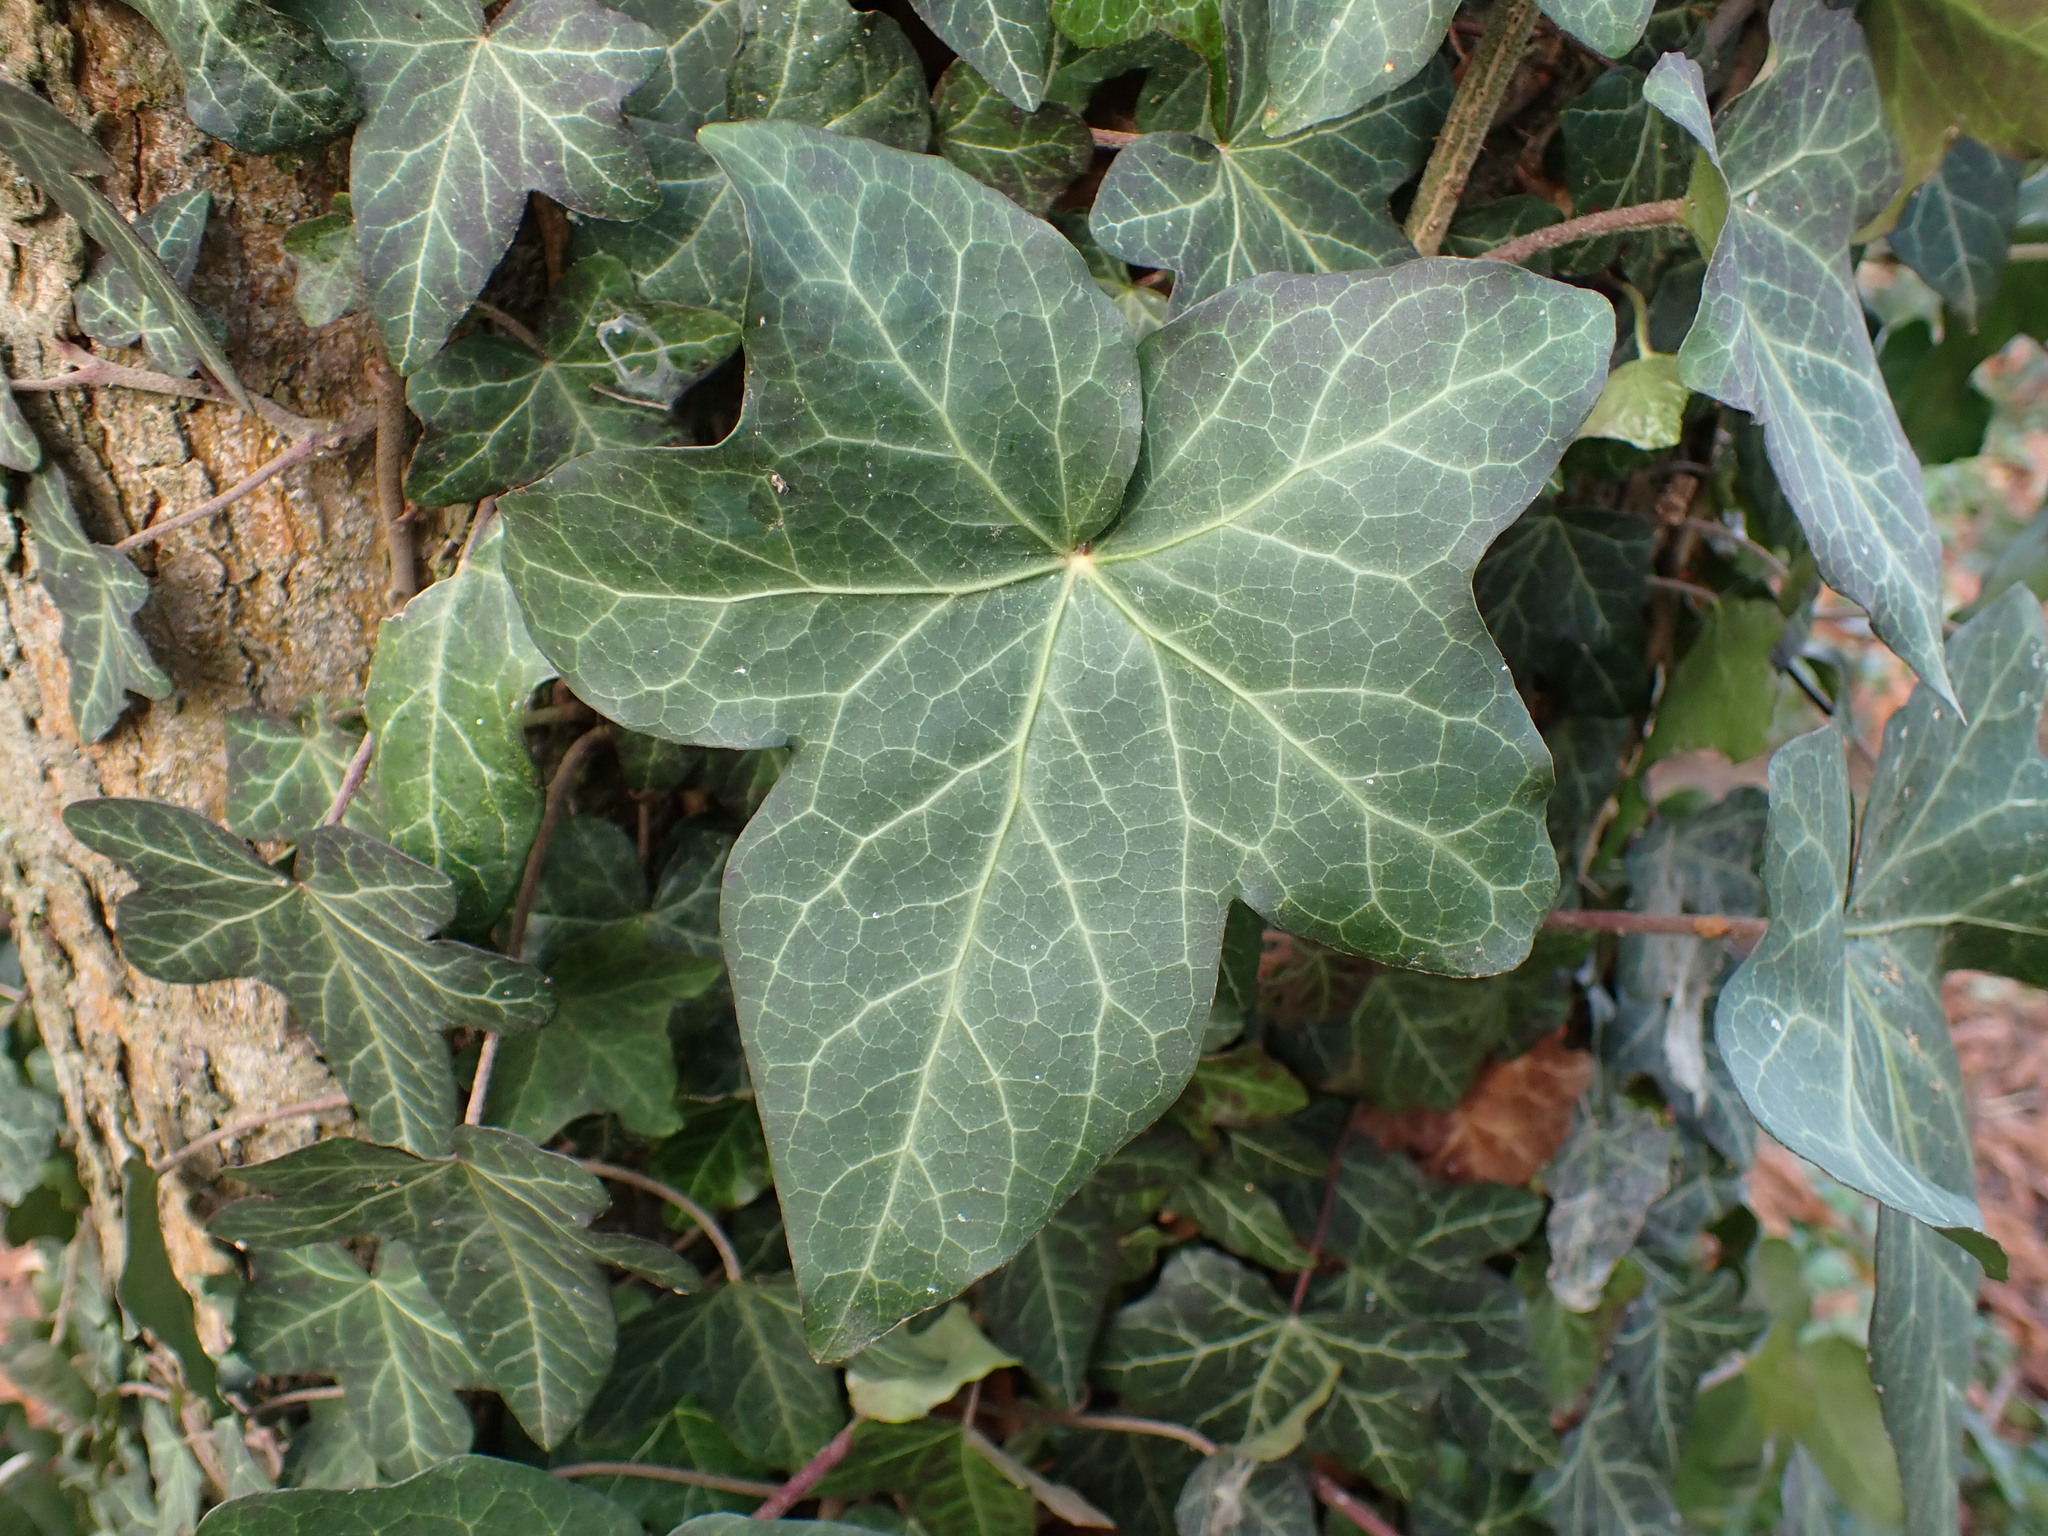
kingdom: Plantae
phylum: Tracheophyta
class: Magnoliopsida
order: Apiales
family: Araliaceae
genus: Hedera
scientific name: Hedera helix
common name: Ivy
